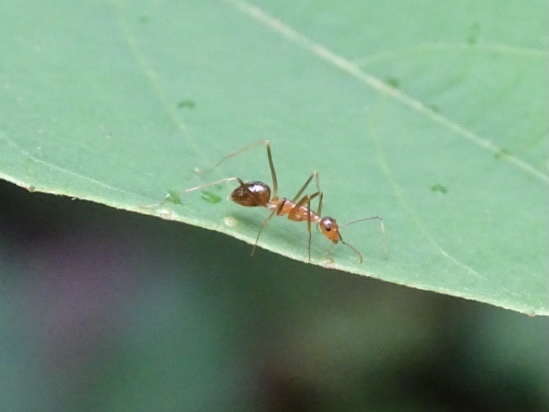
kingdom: Animalia
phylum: Arthropoda
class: Insecta
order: Hymenoptera
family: Formicidae
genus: Anoplolepis
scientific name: Anoplolepis gracilipes
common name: Ant
